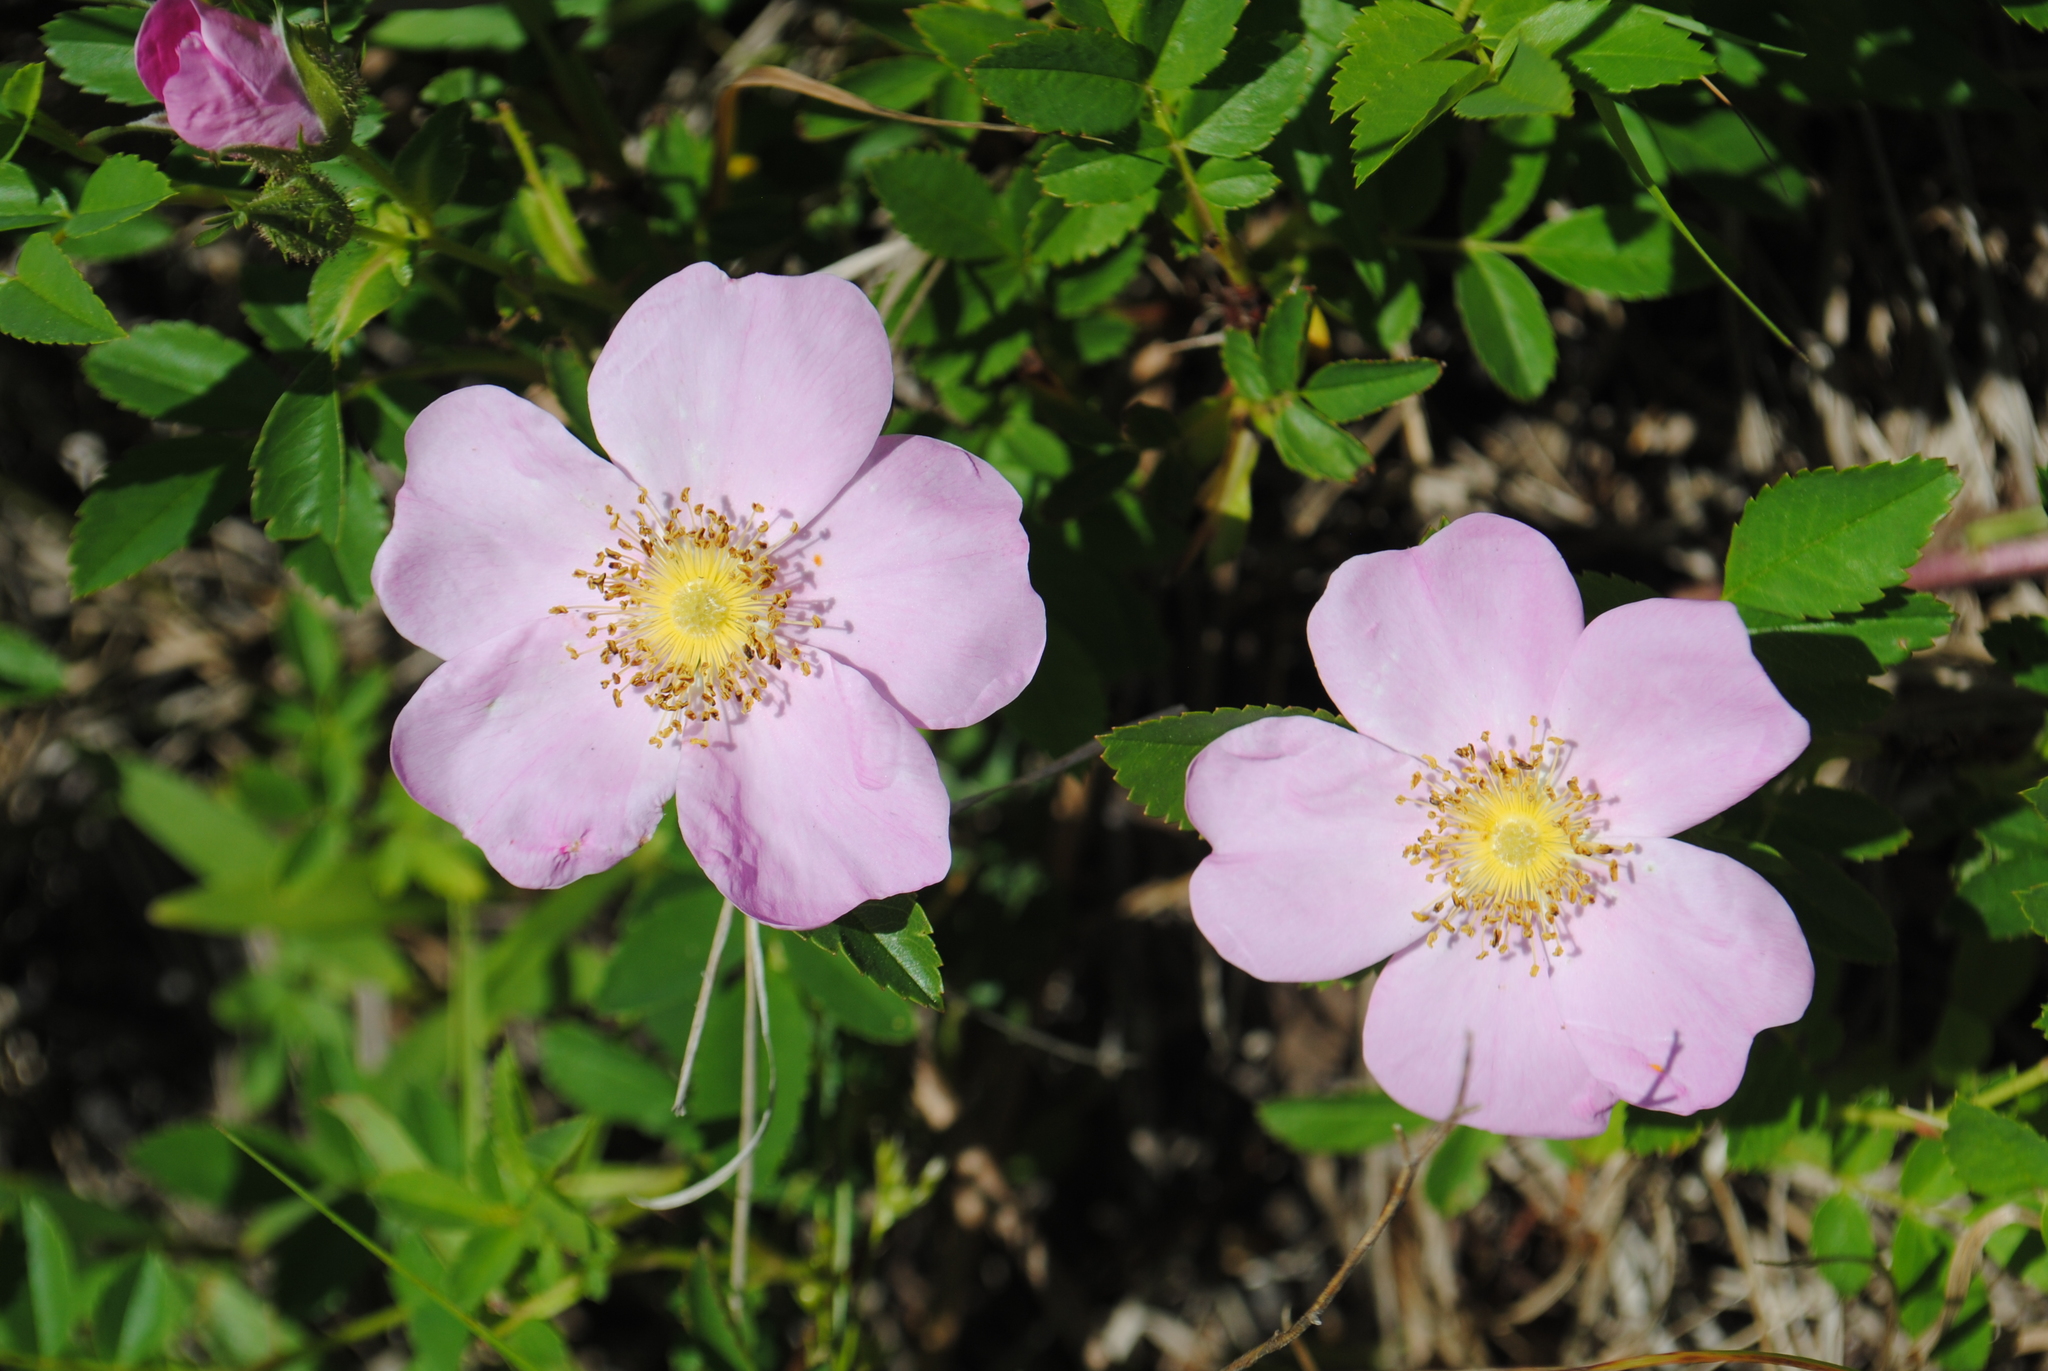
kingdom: Plantae
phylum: Tracheophyta
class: Magnoliopsida
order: Rosales
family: Rosaceae
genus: Rosa
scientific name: Rosa carolina
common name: Pasture rose
